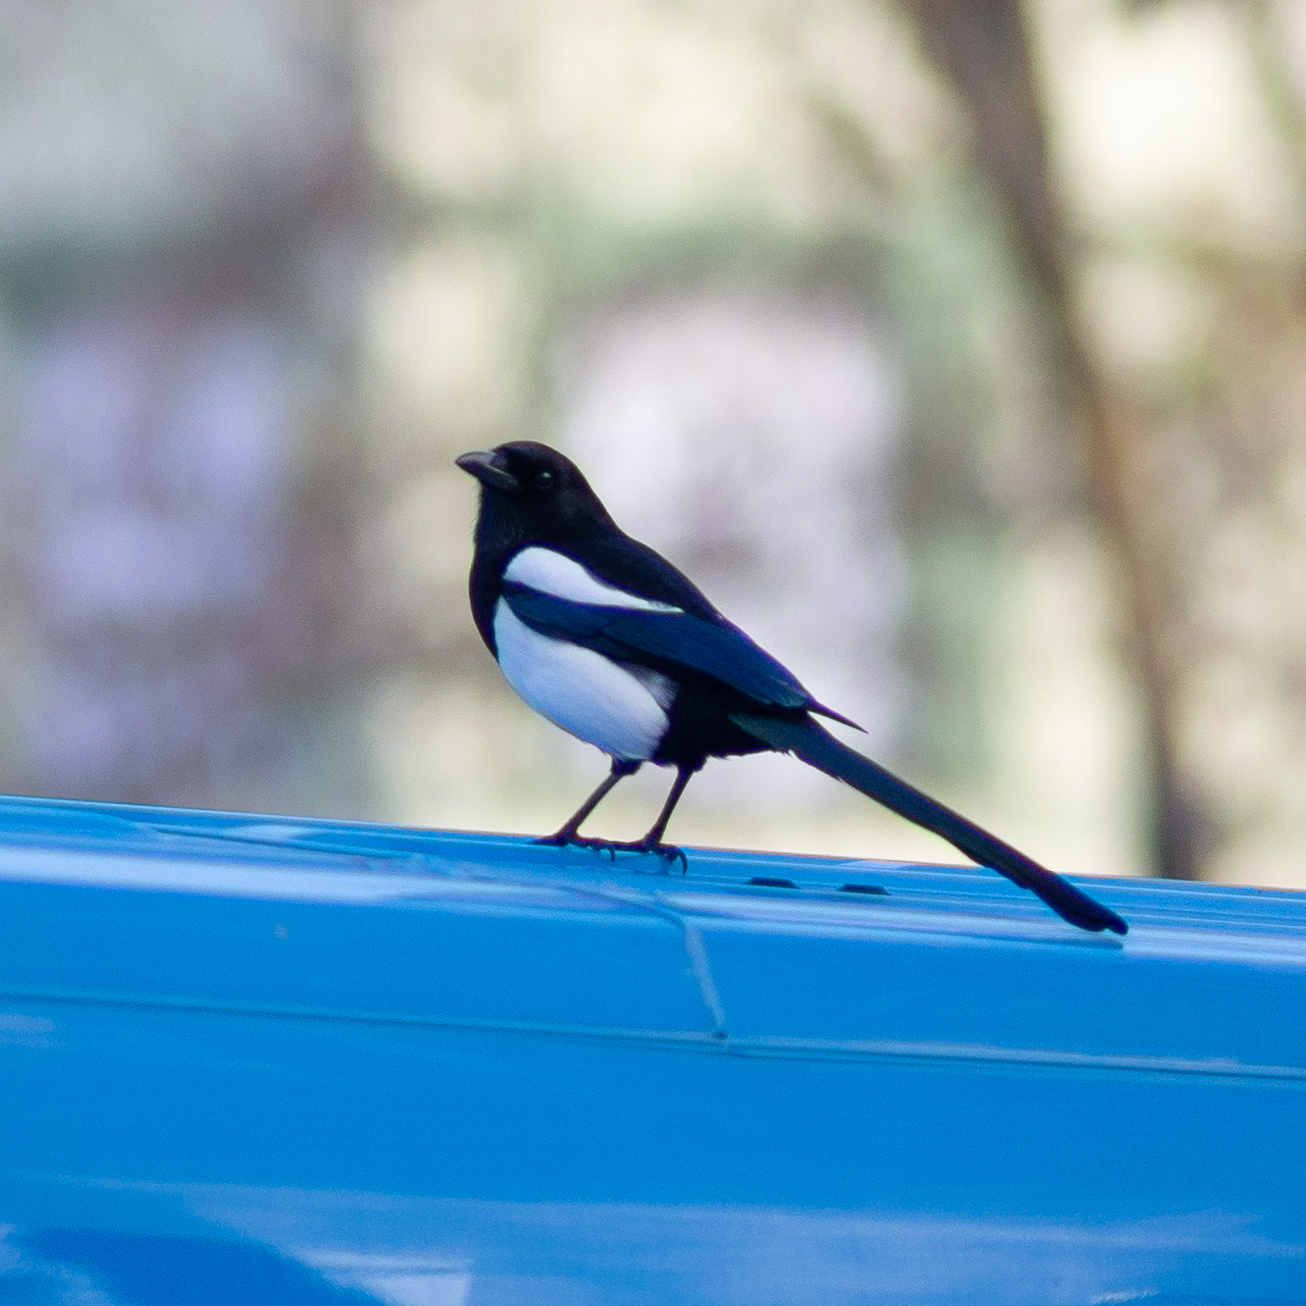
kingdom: Animalia
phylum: Chordata
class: Aves
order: Passeriformes
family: Corvidae
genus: Pica
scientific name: Pica pica
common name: Eurasian magpie
